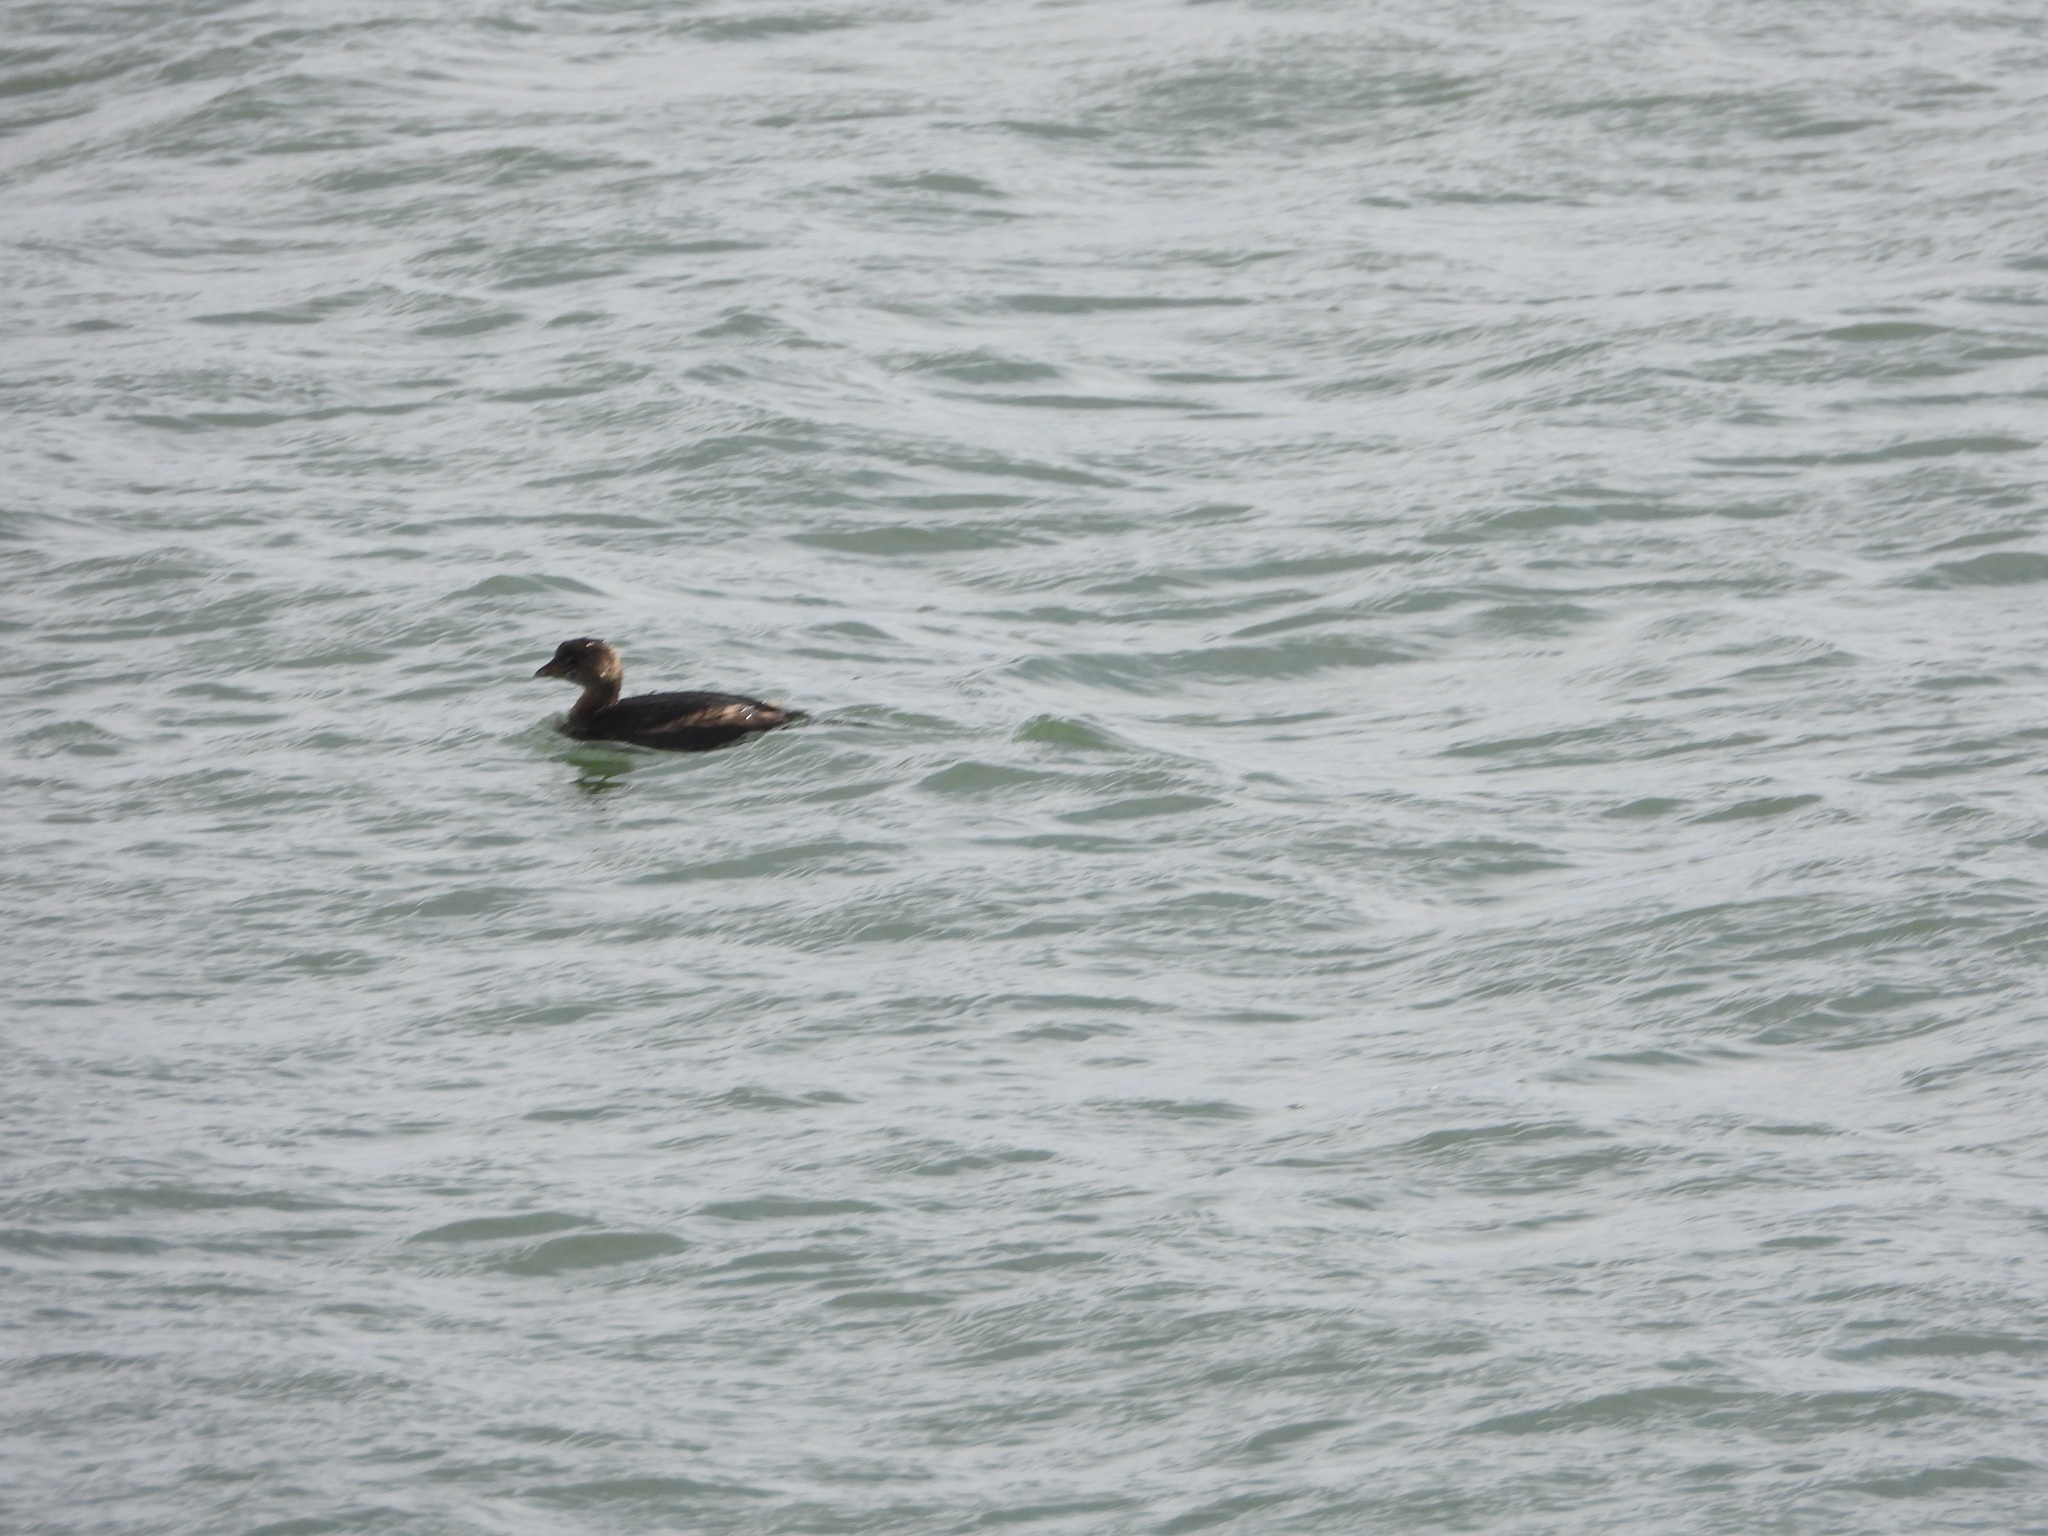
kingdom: Animalia
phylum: Chordata
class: Aves
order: Podicipediformes
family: Podicipedidae
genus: Podilymbus
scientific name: Podilymbus podiceps
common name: Pied-billed grebe
